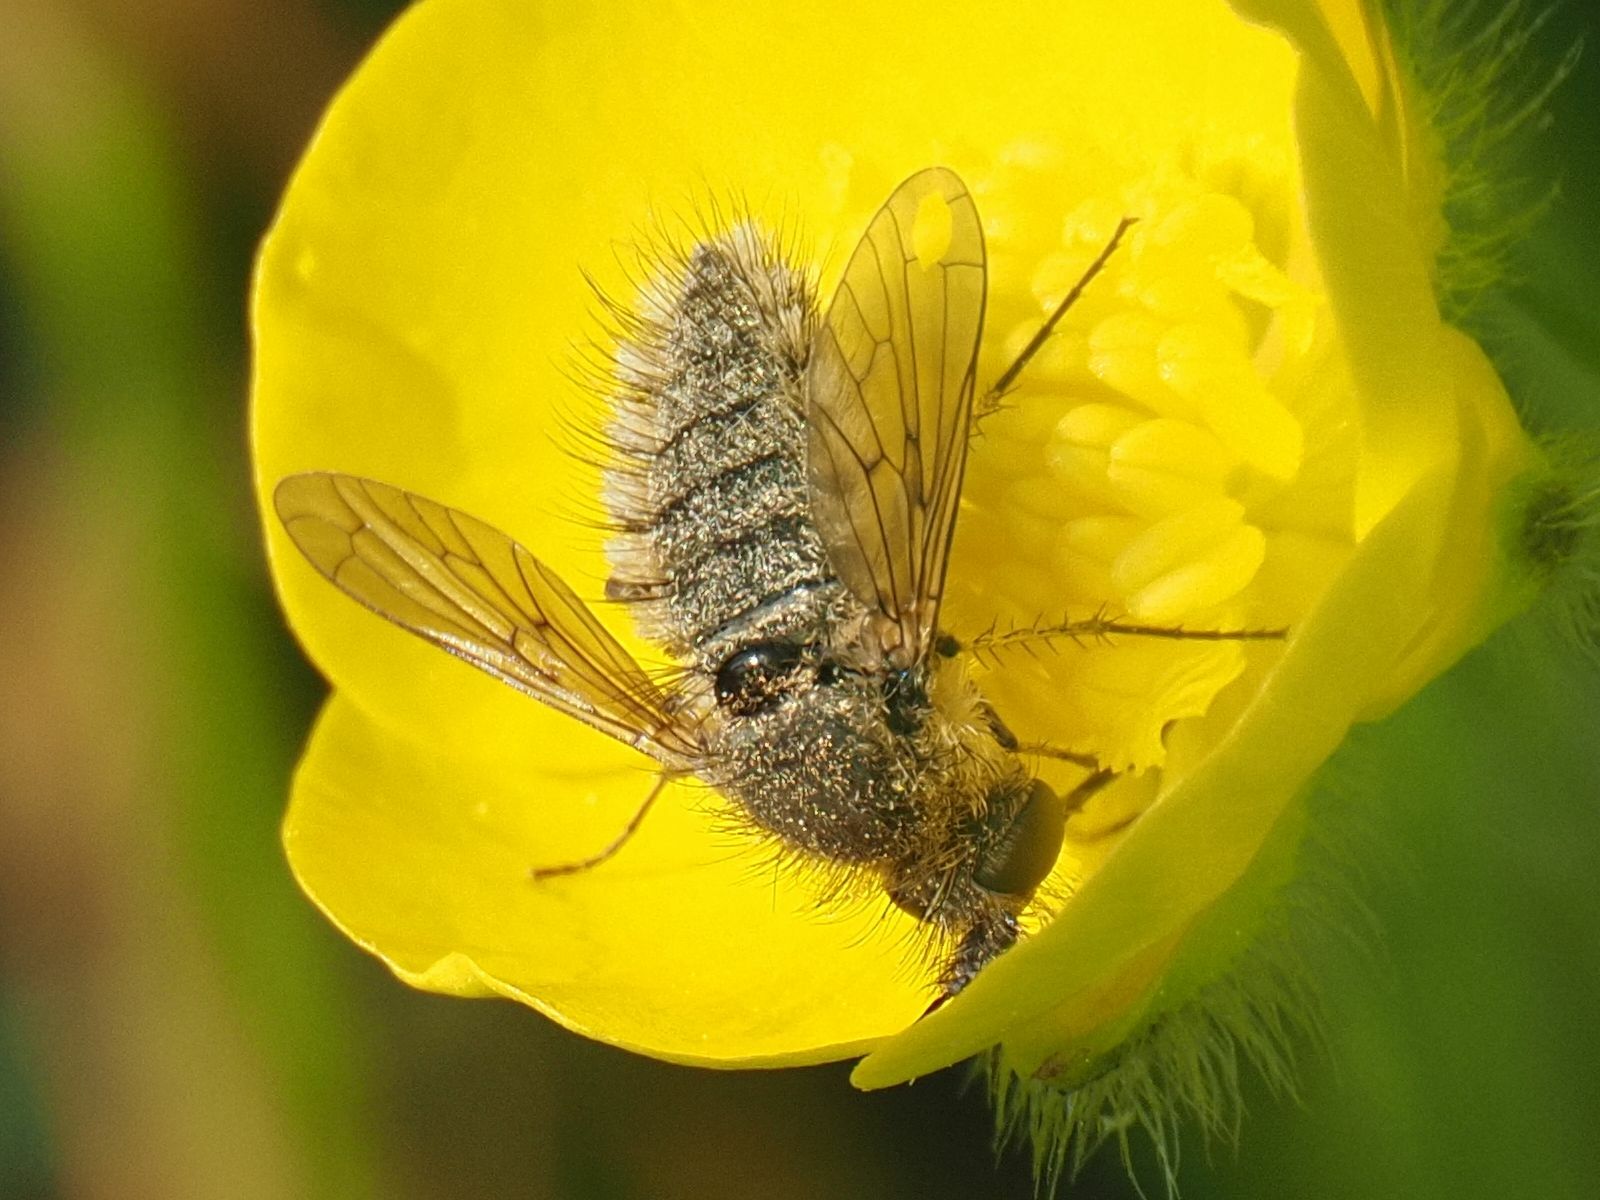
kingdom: Animalia
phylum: Arthropoda
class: Insecta
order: Diptera
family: Bombyliidae
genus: Conophorus
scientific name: Conophorus virescens
